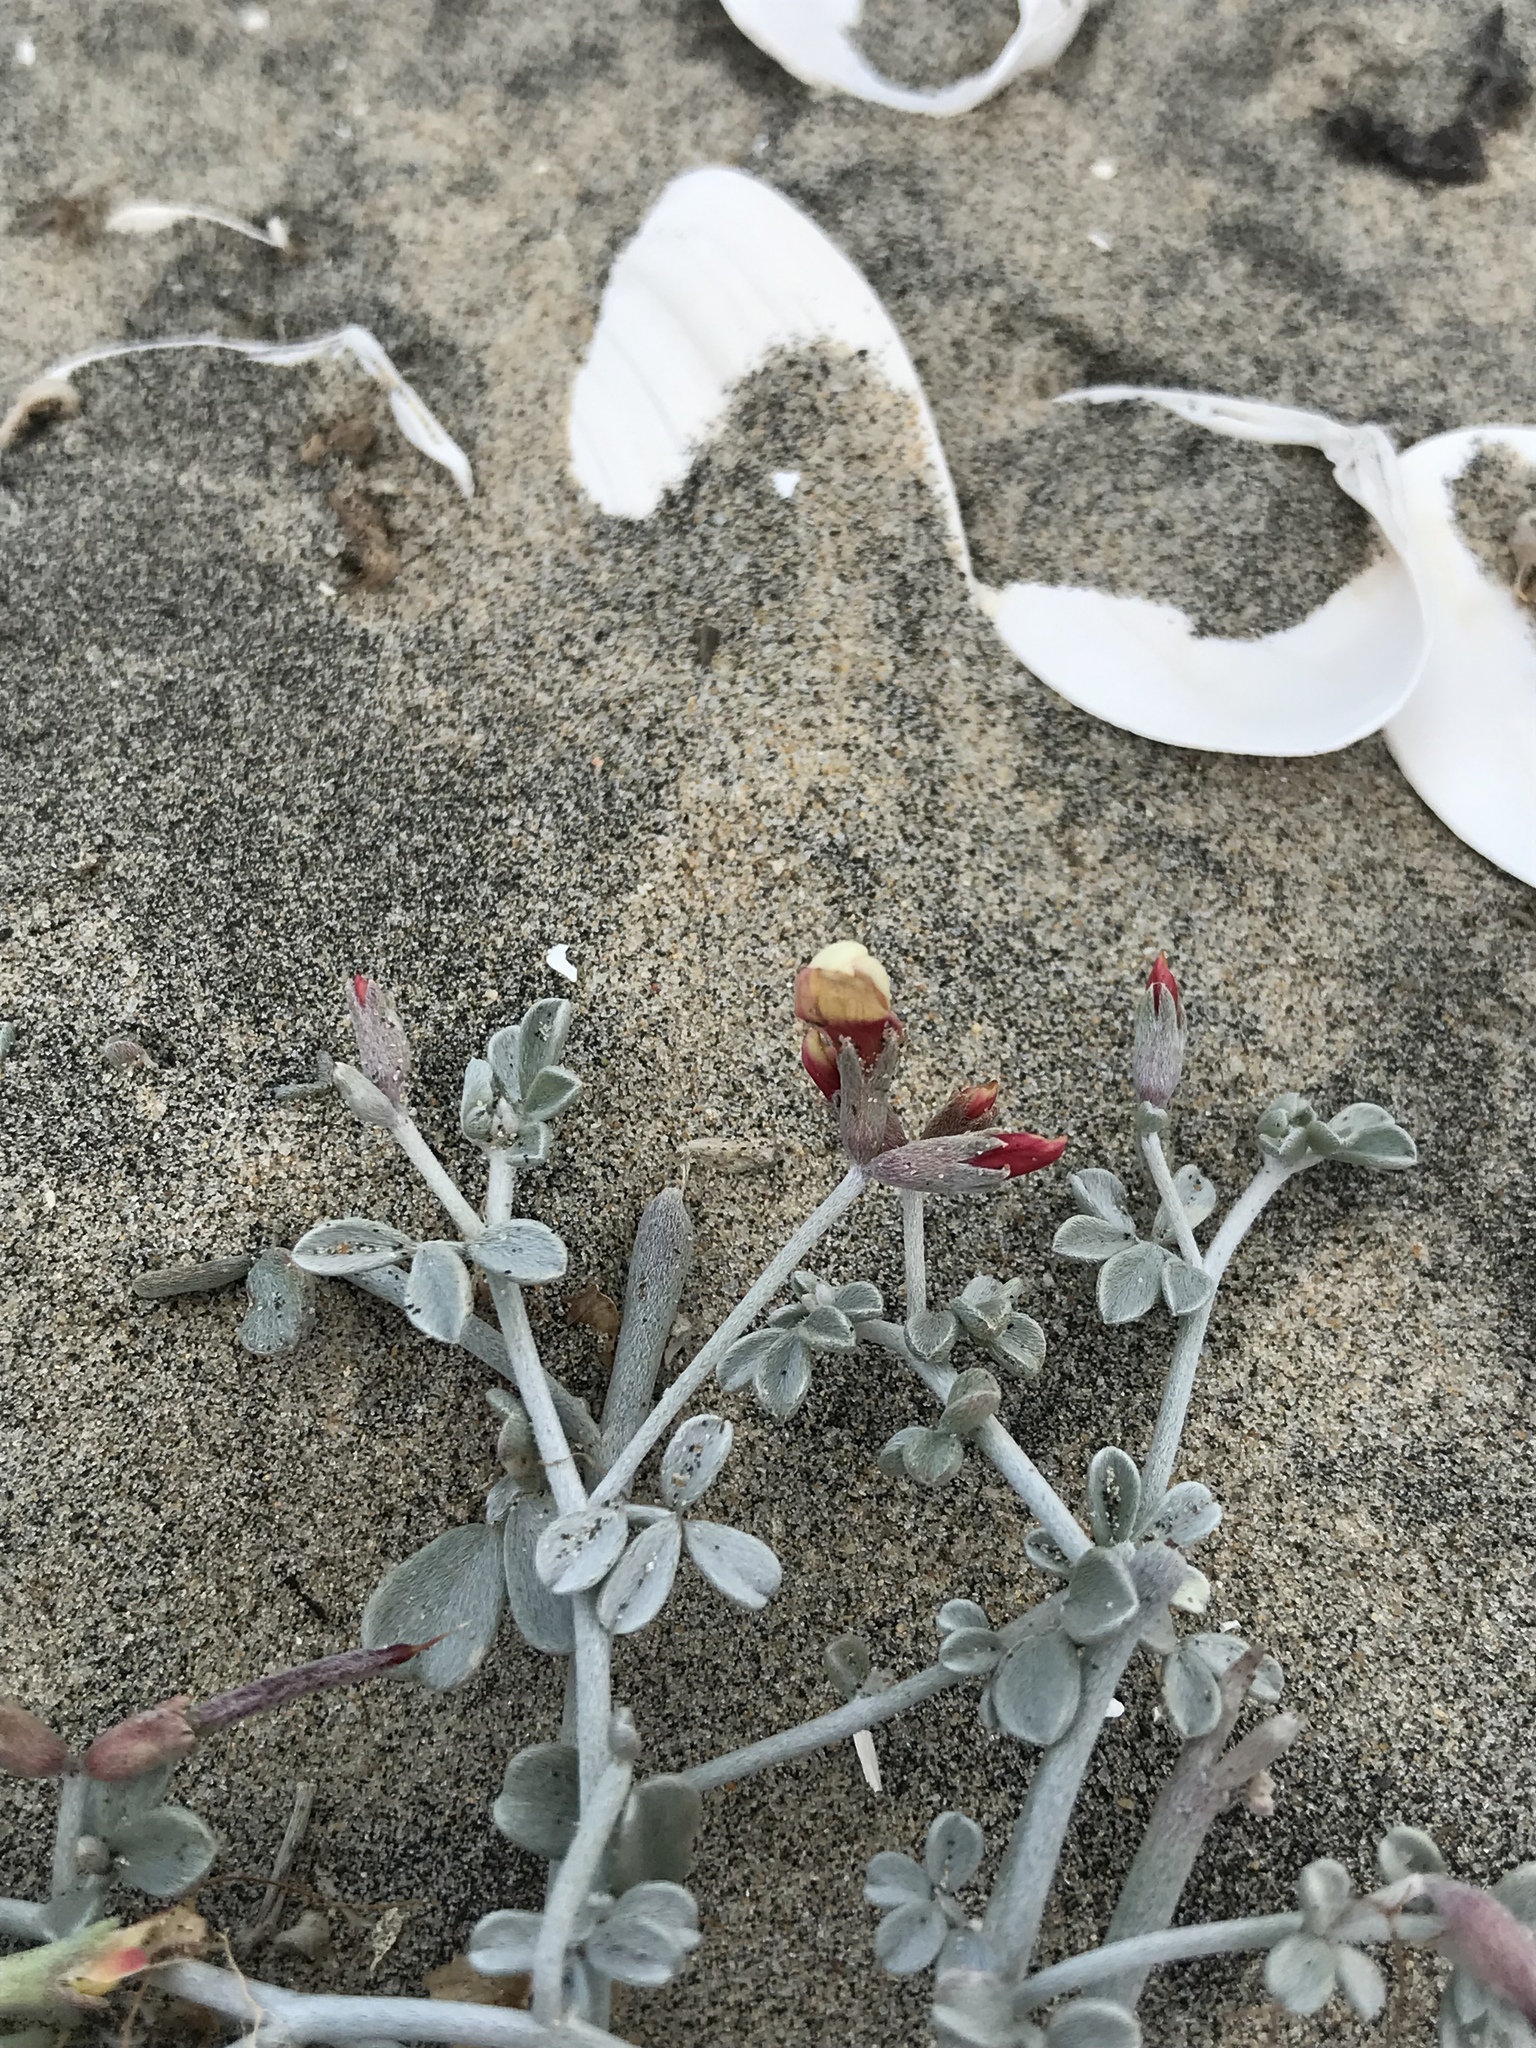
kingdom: Plantae
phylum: Tracheophyta
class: Magnoliopsida
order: Fabales
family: Fabaceae
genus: Acmispon
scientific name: Acmispon niveus
